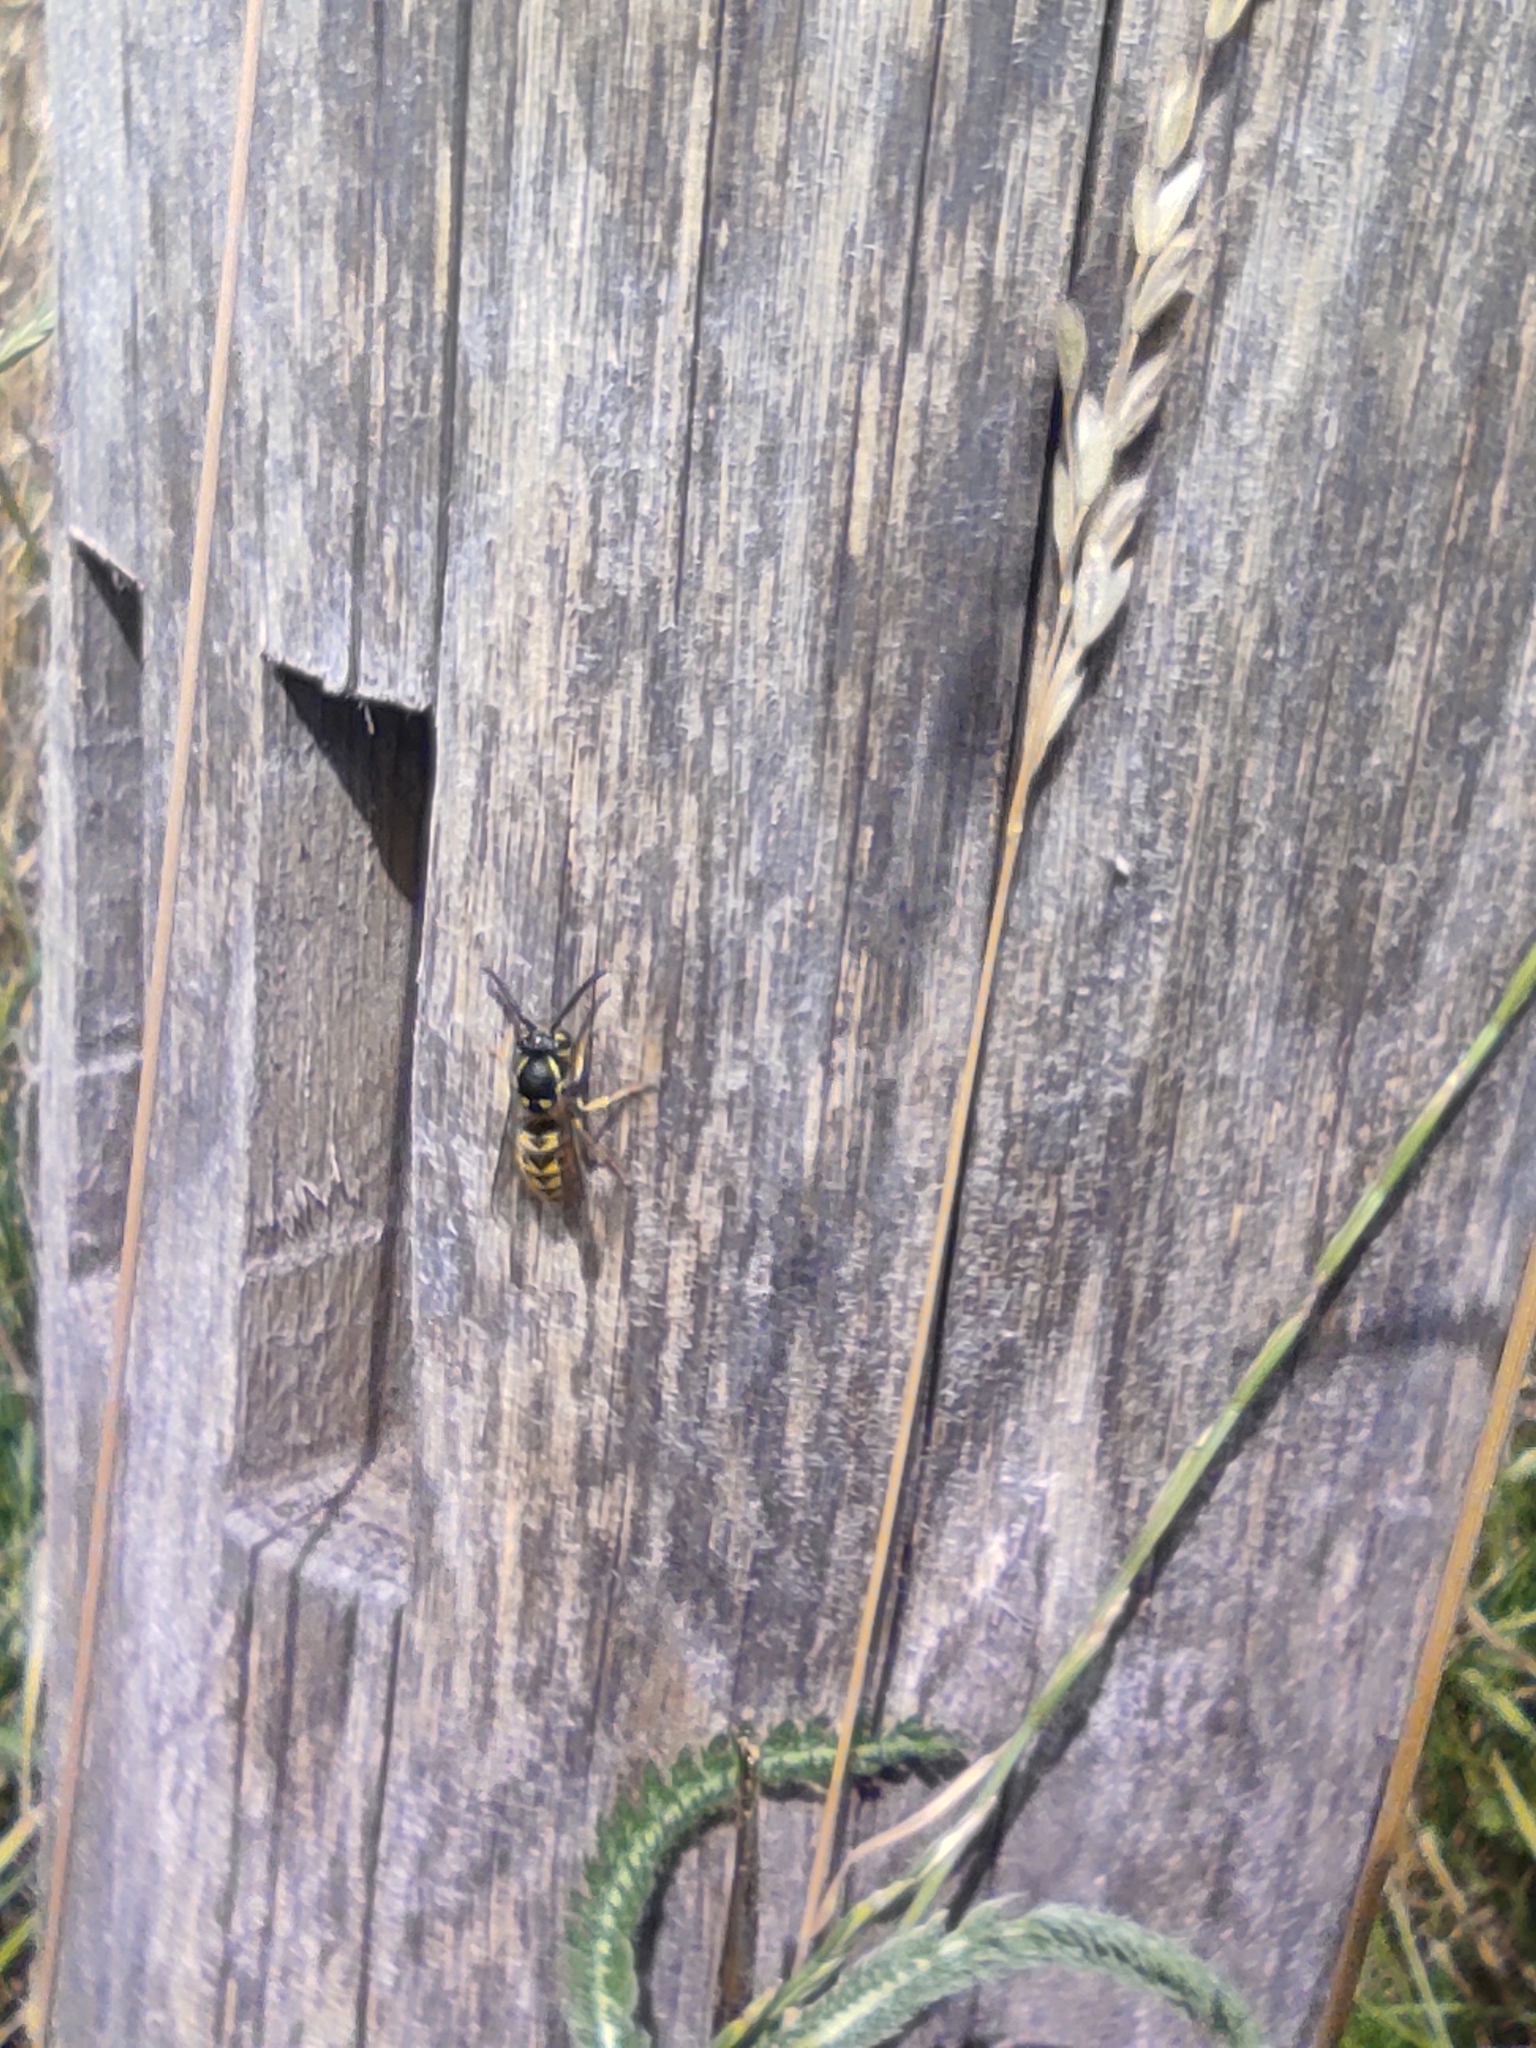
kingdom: Animalia
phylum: Arthropoda
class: Insecta
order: Hymenoptera
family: Vespidae
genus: Vespula
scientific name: Vespula germanica
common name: German wasp
